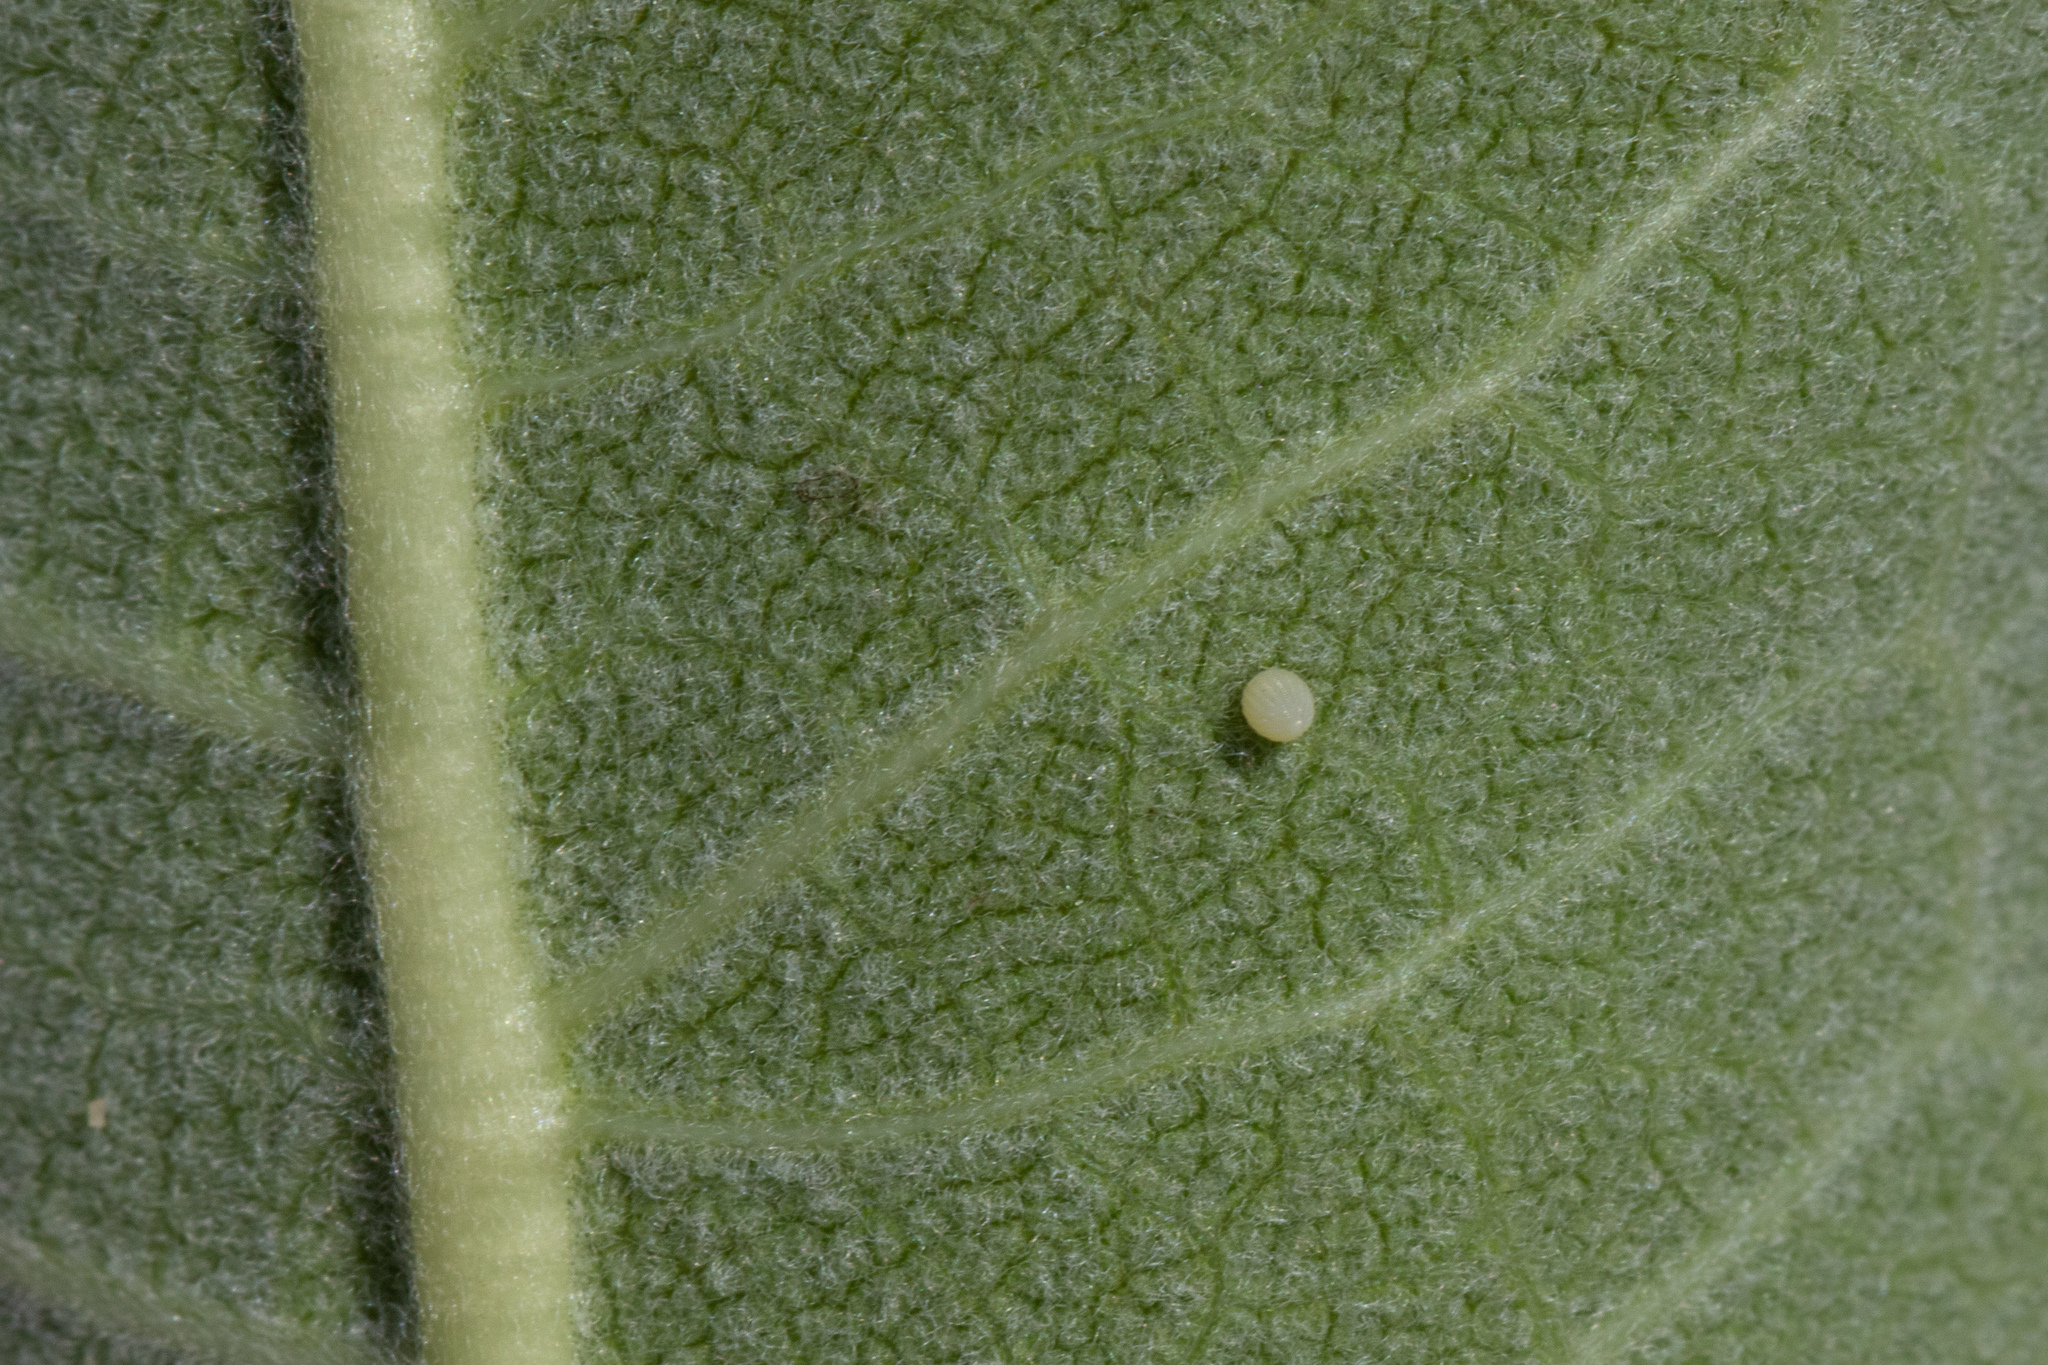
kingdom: Animalia
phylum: Arthropoda
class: Insecta
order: Lepidoptera
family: Nymphalidae
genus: Danaus
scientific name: Danaus plexippus
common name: Monarch
